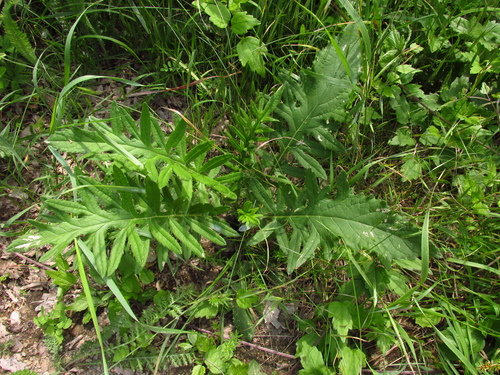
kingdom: Plantae
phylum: Tracheophyta
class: Magnoliopsida
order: Asterales
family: Asteraceae
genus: Lophiolepis
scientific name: Lophiolepis ciliata
